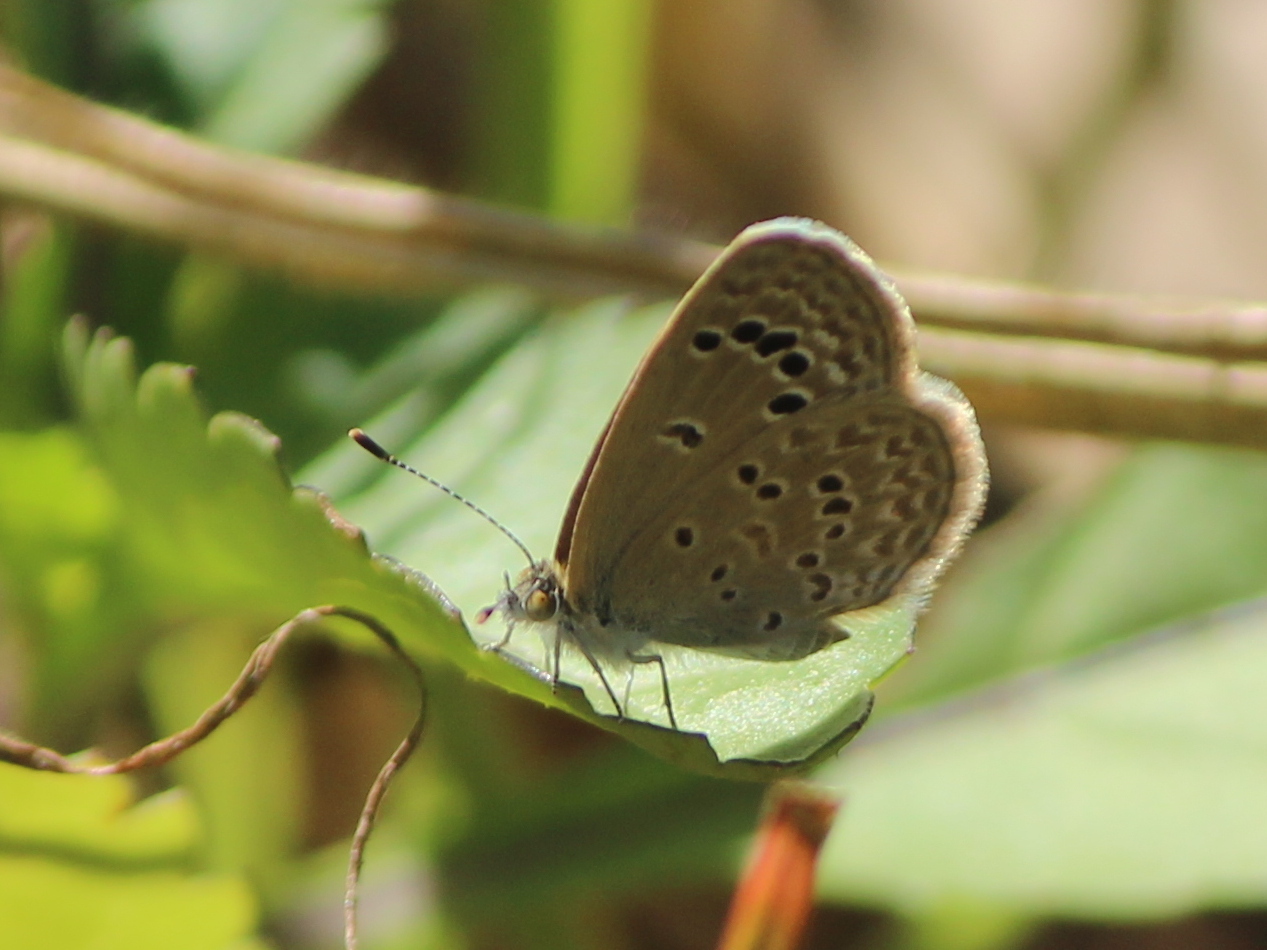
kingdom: Animalia
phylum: Arthropoda
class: Insecta
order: Lepidoptera
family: Lycaenidae
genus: Zizina
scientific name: Zizina otis
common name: Lesser grass blue
